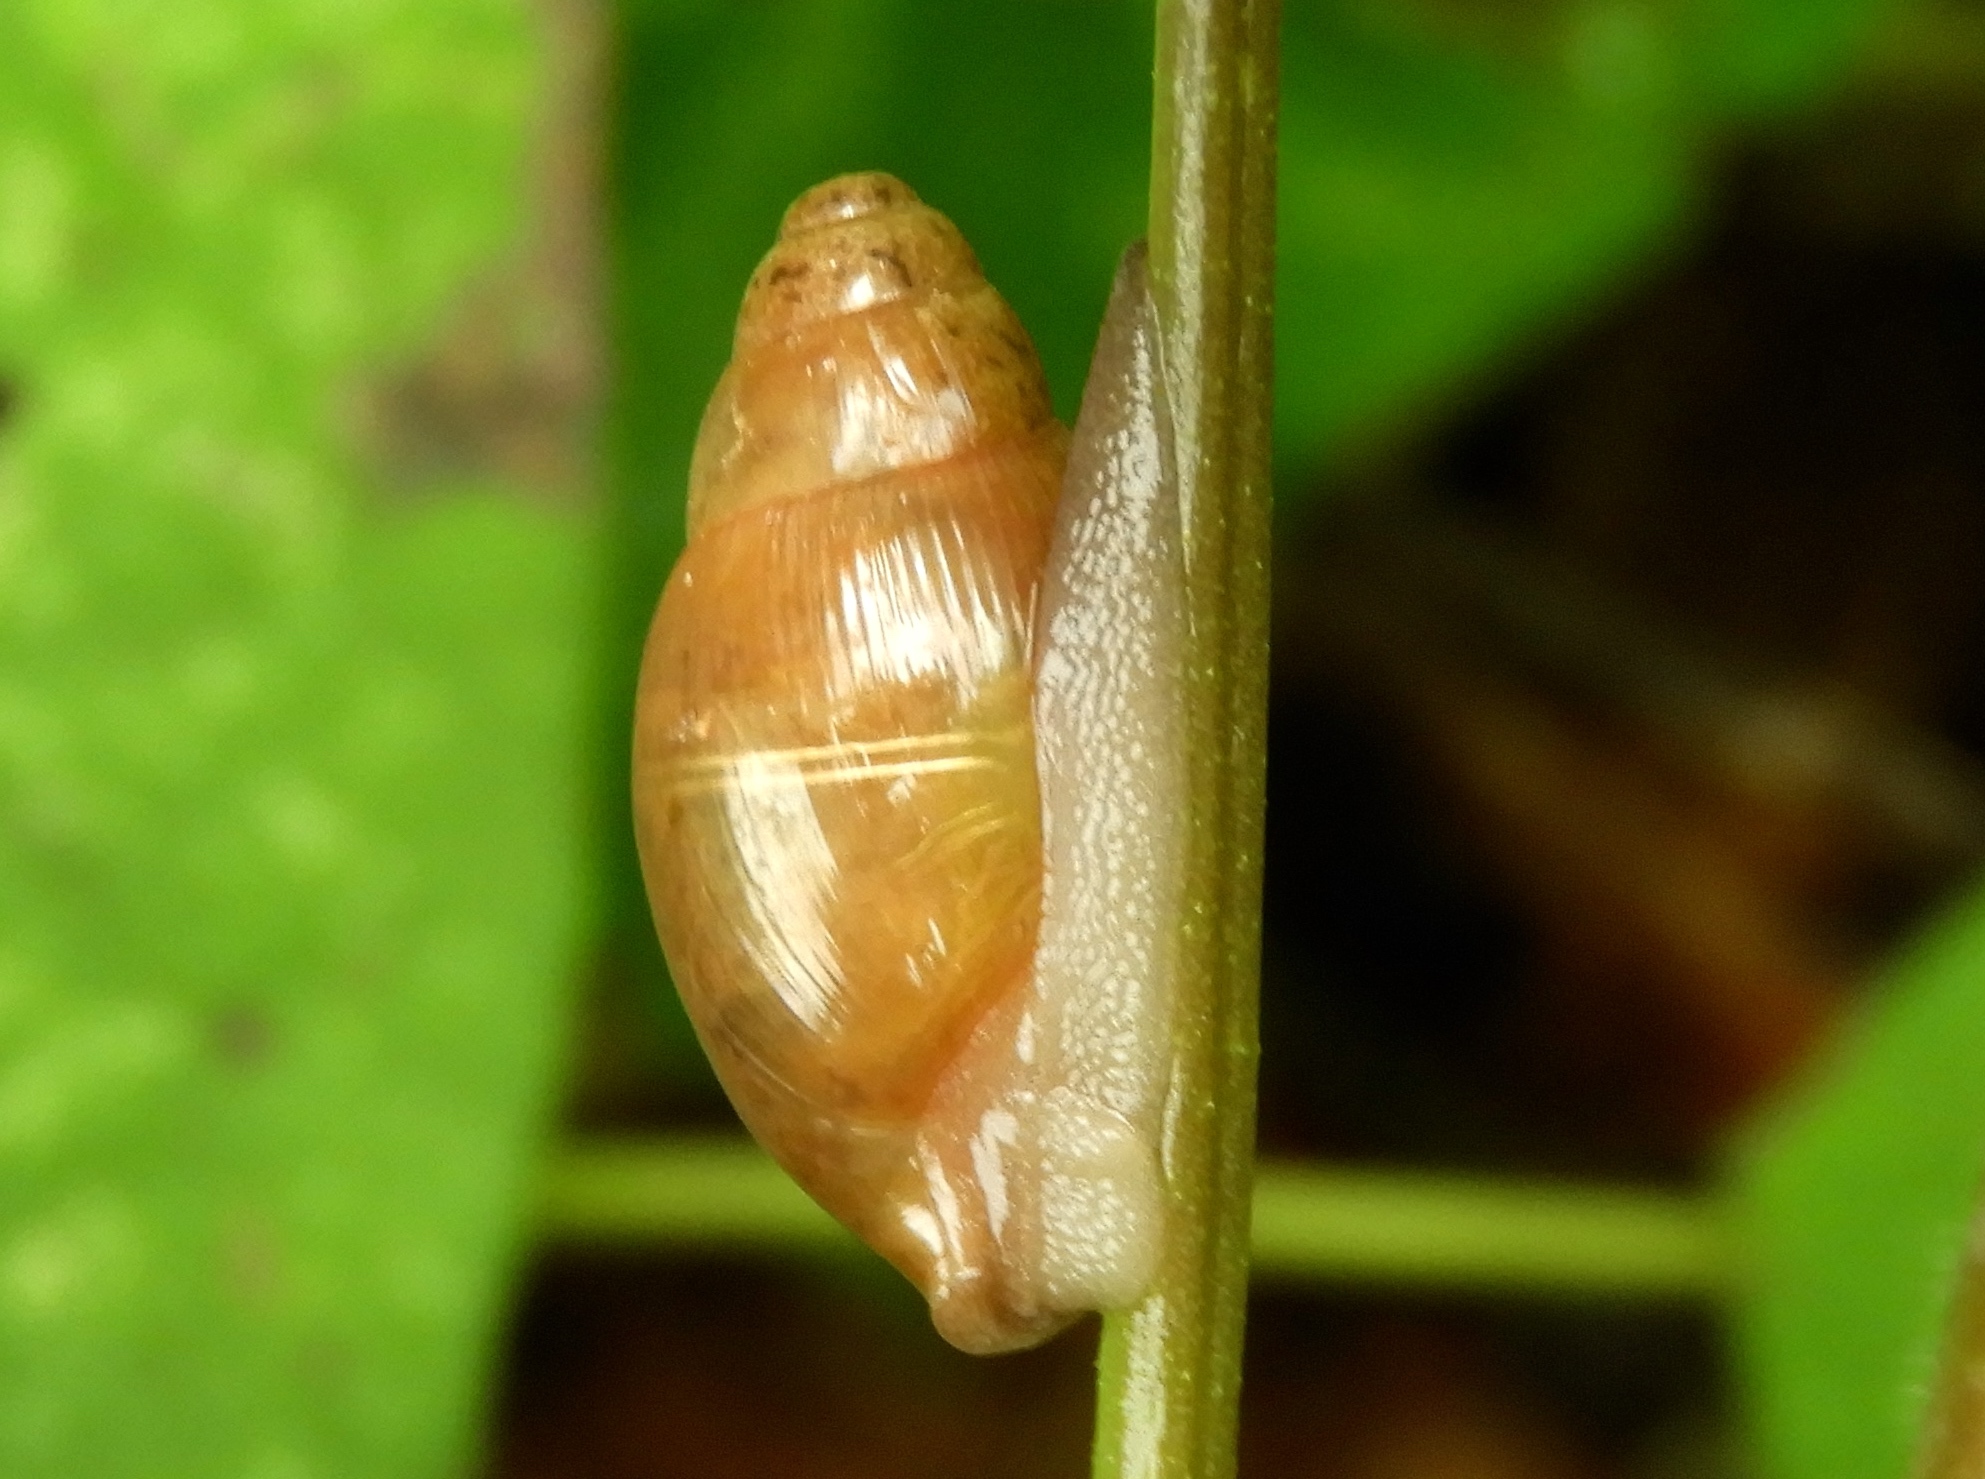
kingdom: Animalia
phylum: Mollusca
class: Gastropoda
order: Stylommatophora
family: Spiraxidae
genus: Euglandina
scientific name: Euglandina
